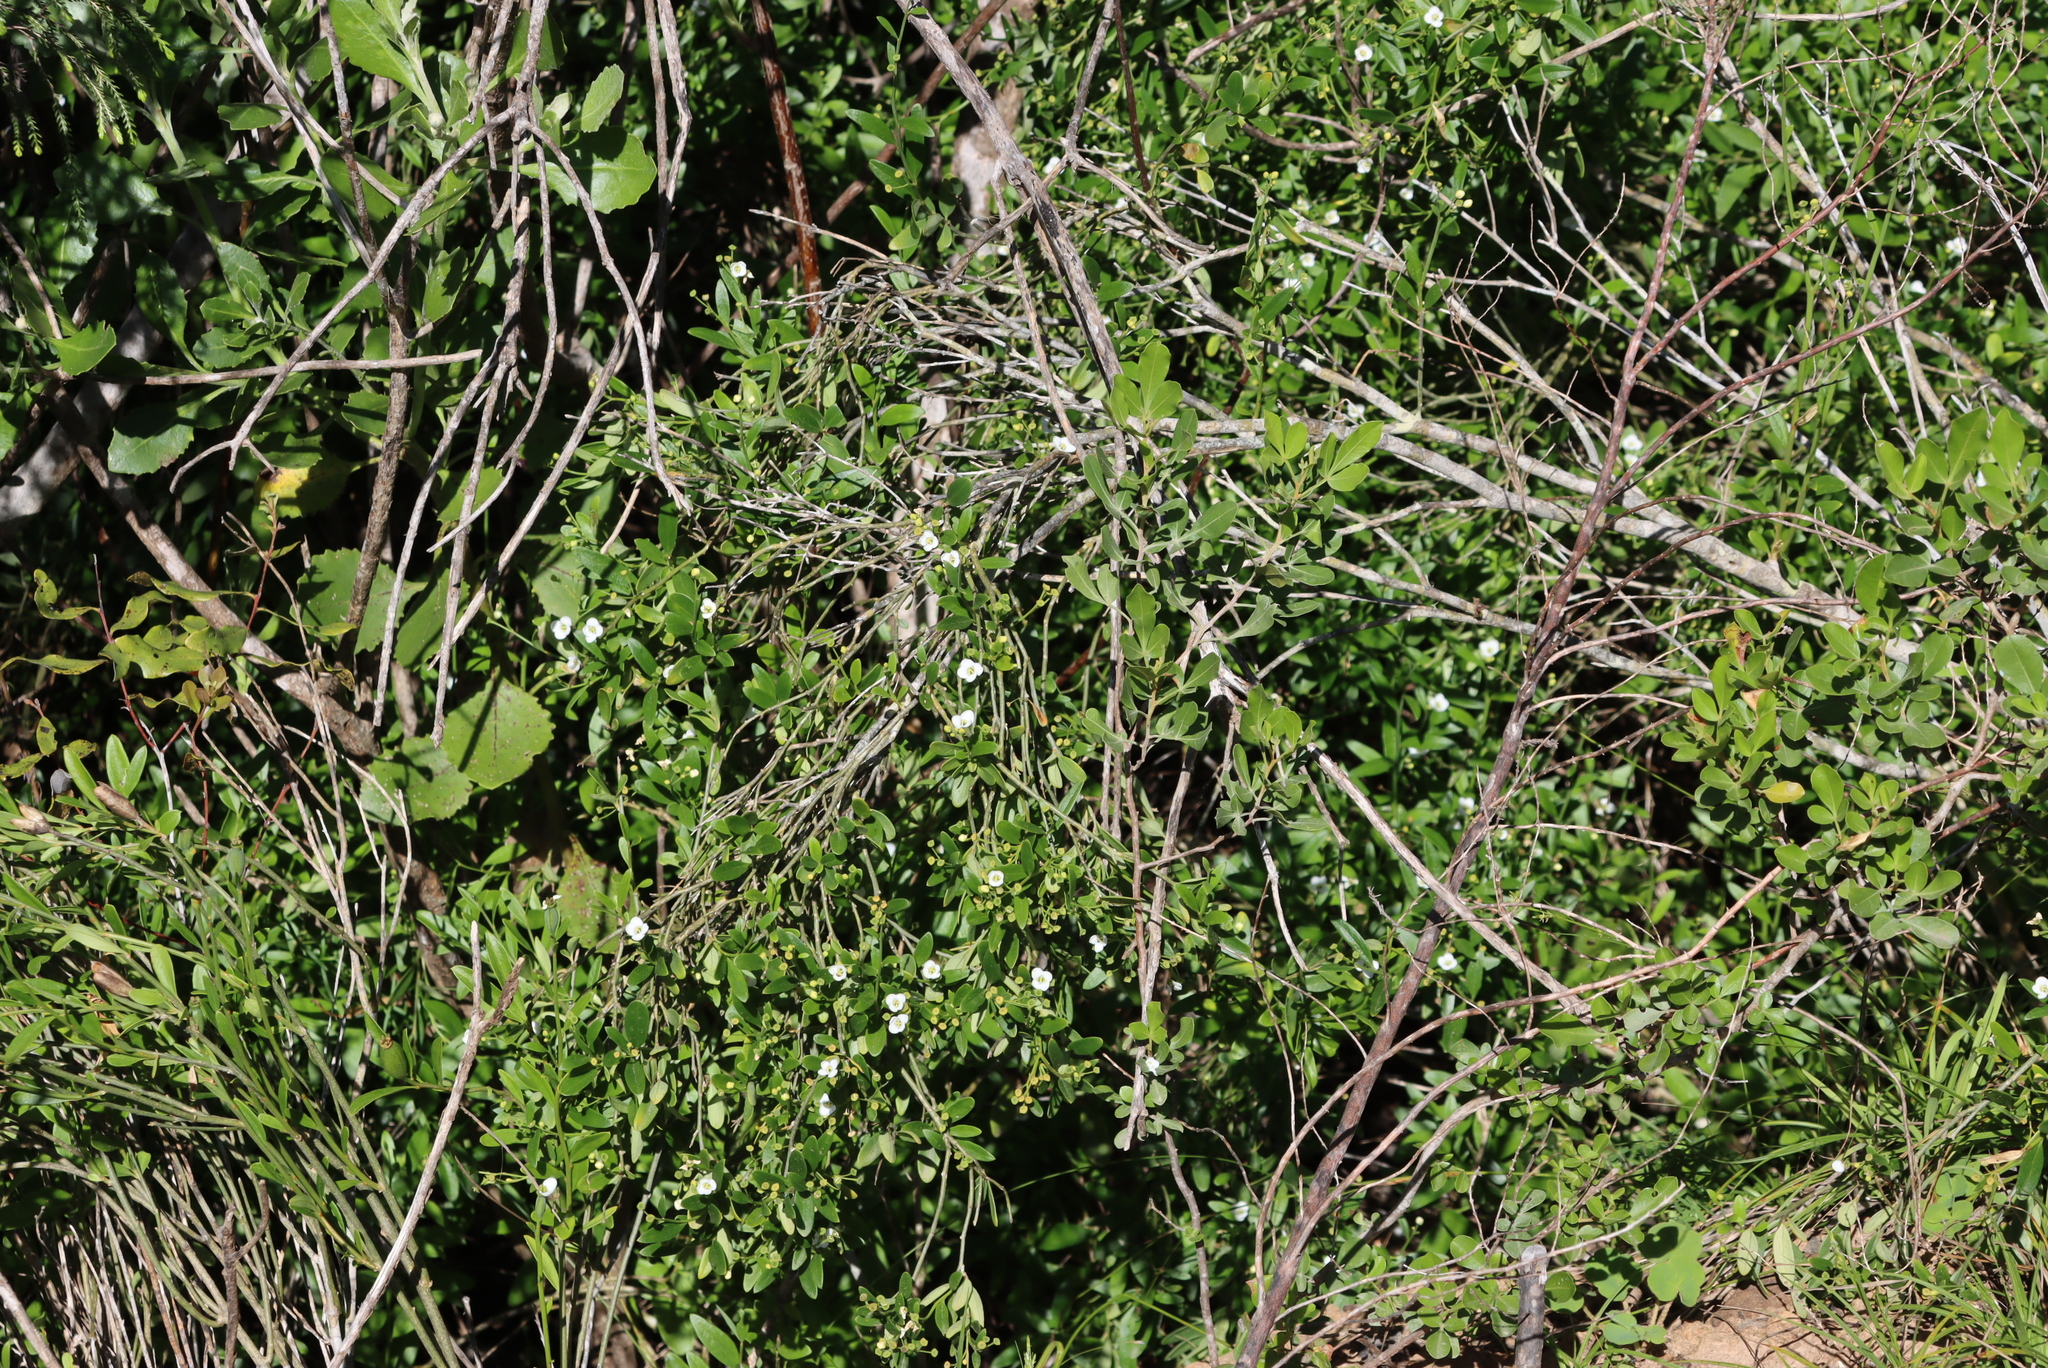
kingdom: Plantae
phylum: Tracheophyta
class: Magnoliopsida
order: Solanales
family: Montiniaceae
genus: Montinia
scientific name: Montinia caryophyllacea
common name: Wild clove-bush
